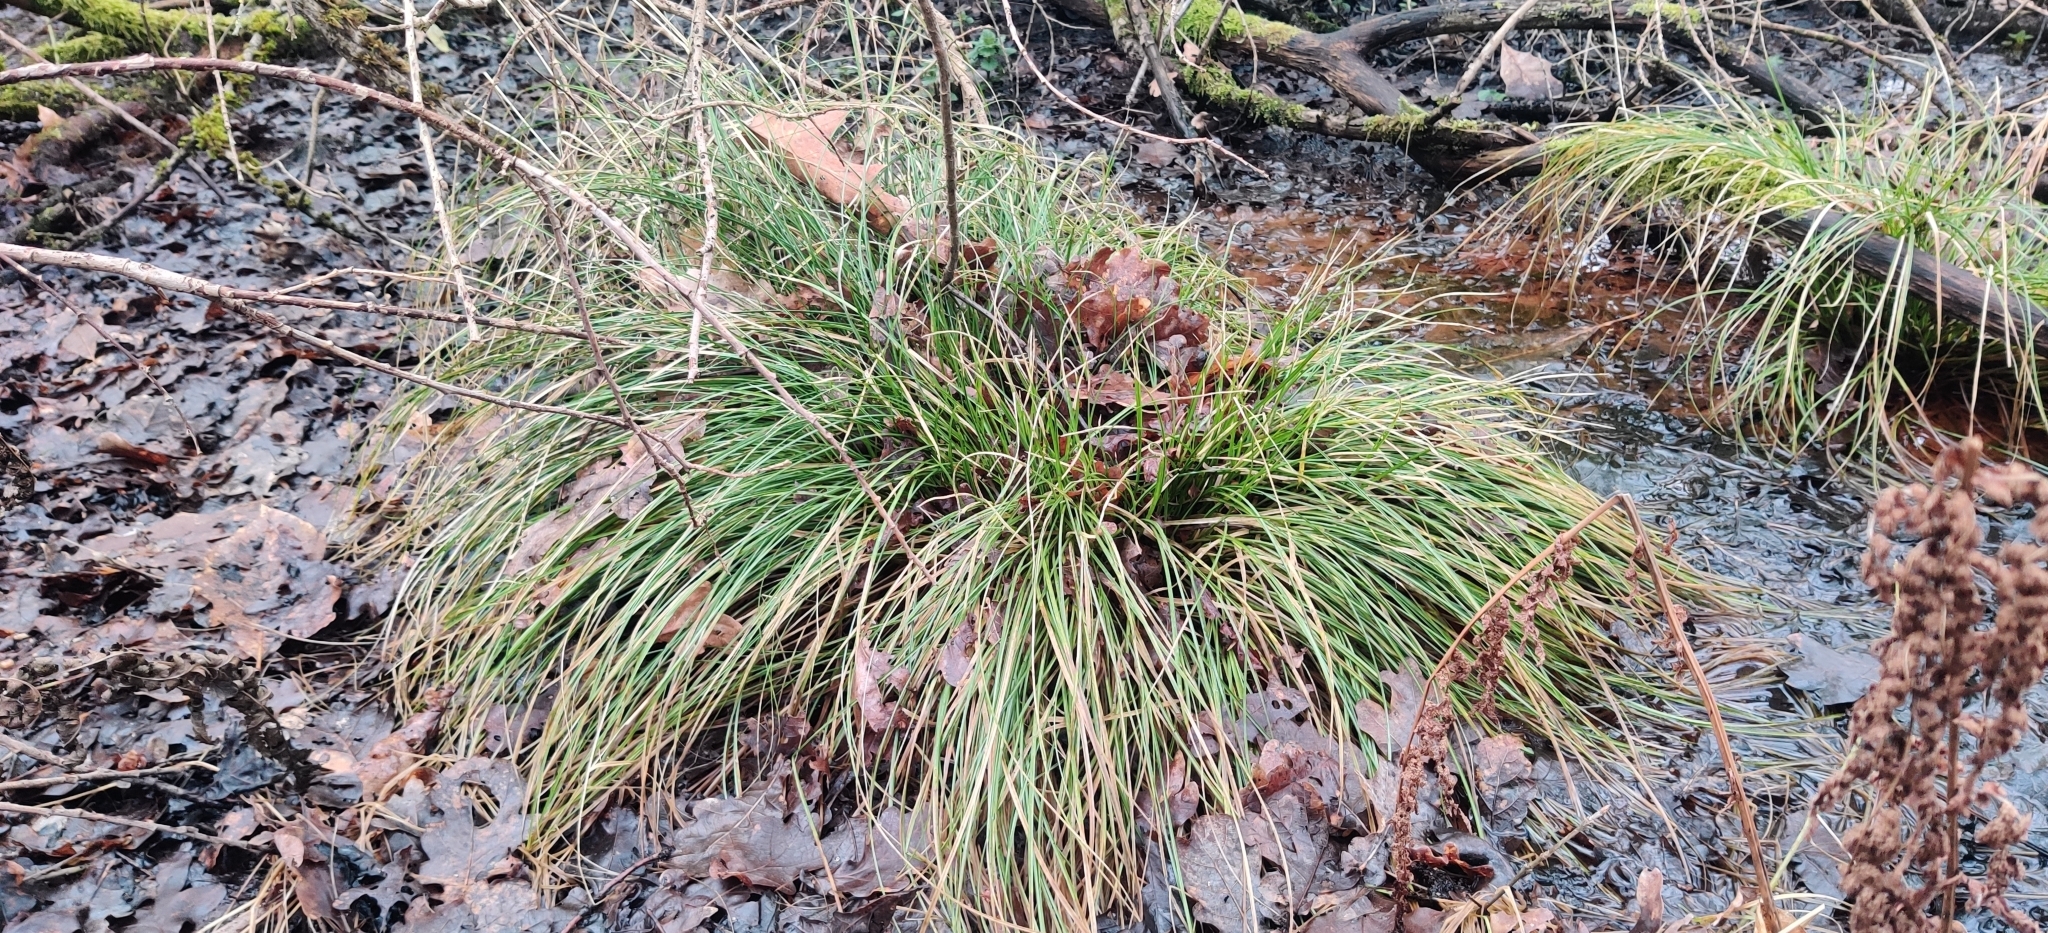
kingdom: Plantae
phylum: Tracheophyta
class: Liliopsida
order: Poales
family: Cyperaceae
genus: Carex
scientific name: Carex remota
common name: Remote sedge
